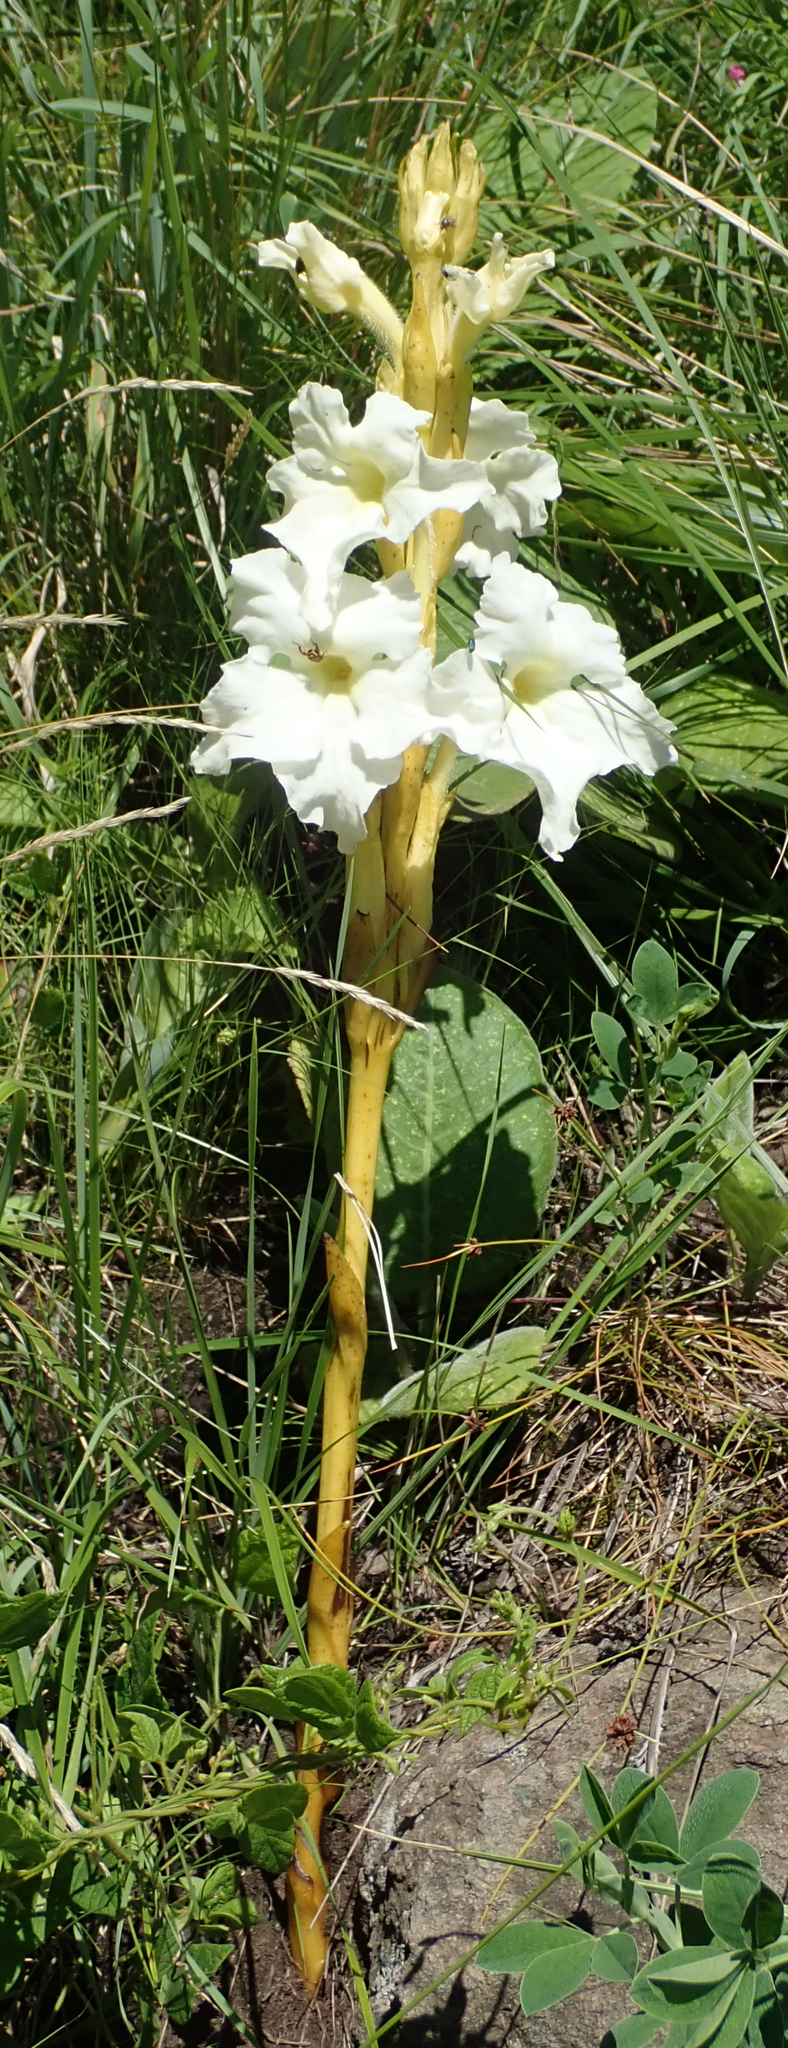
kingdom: Plantae
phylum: Tracheophyta
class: Magnoliopsida
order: Lamiales
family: Orobanchaceae
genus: Harveya
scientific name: Harveya speciosa
